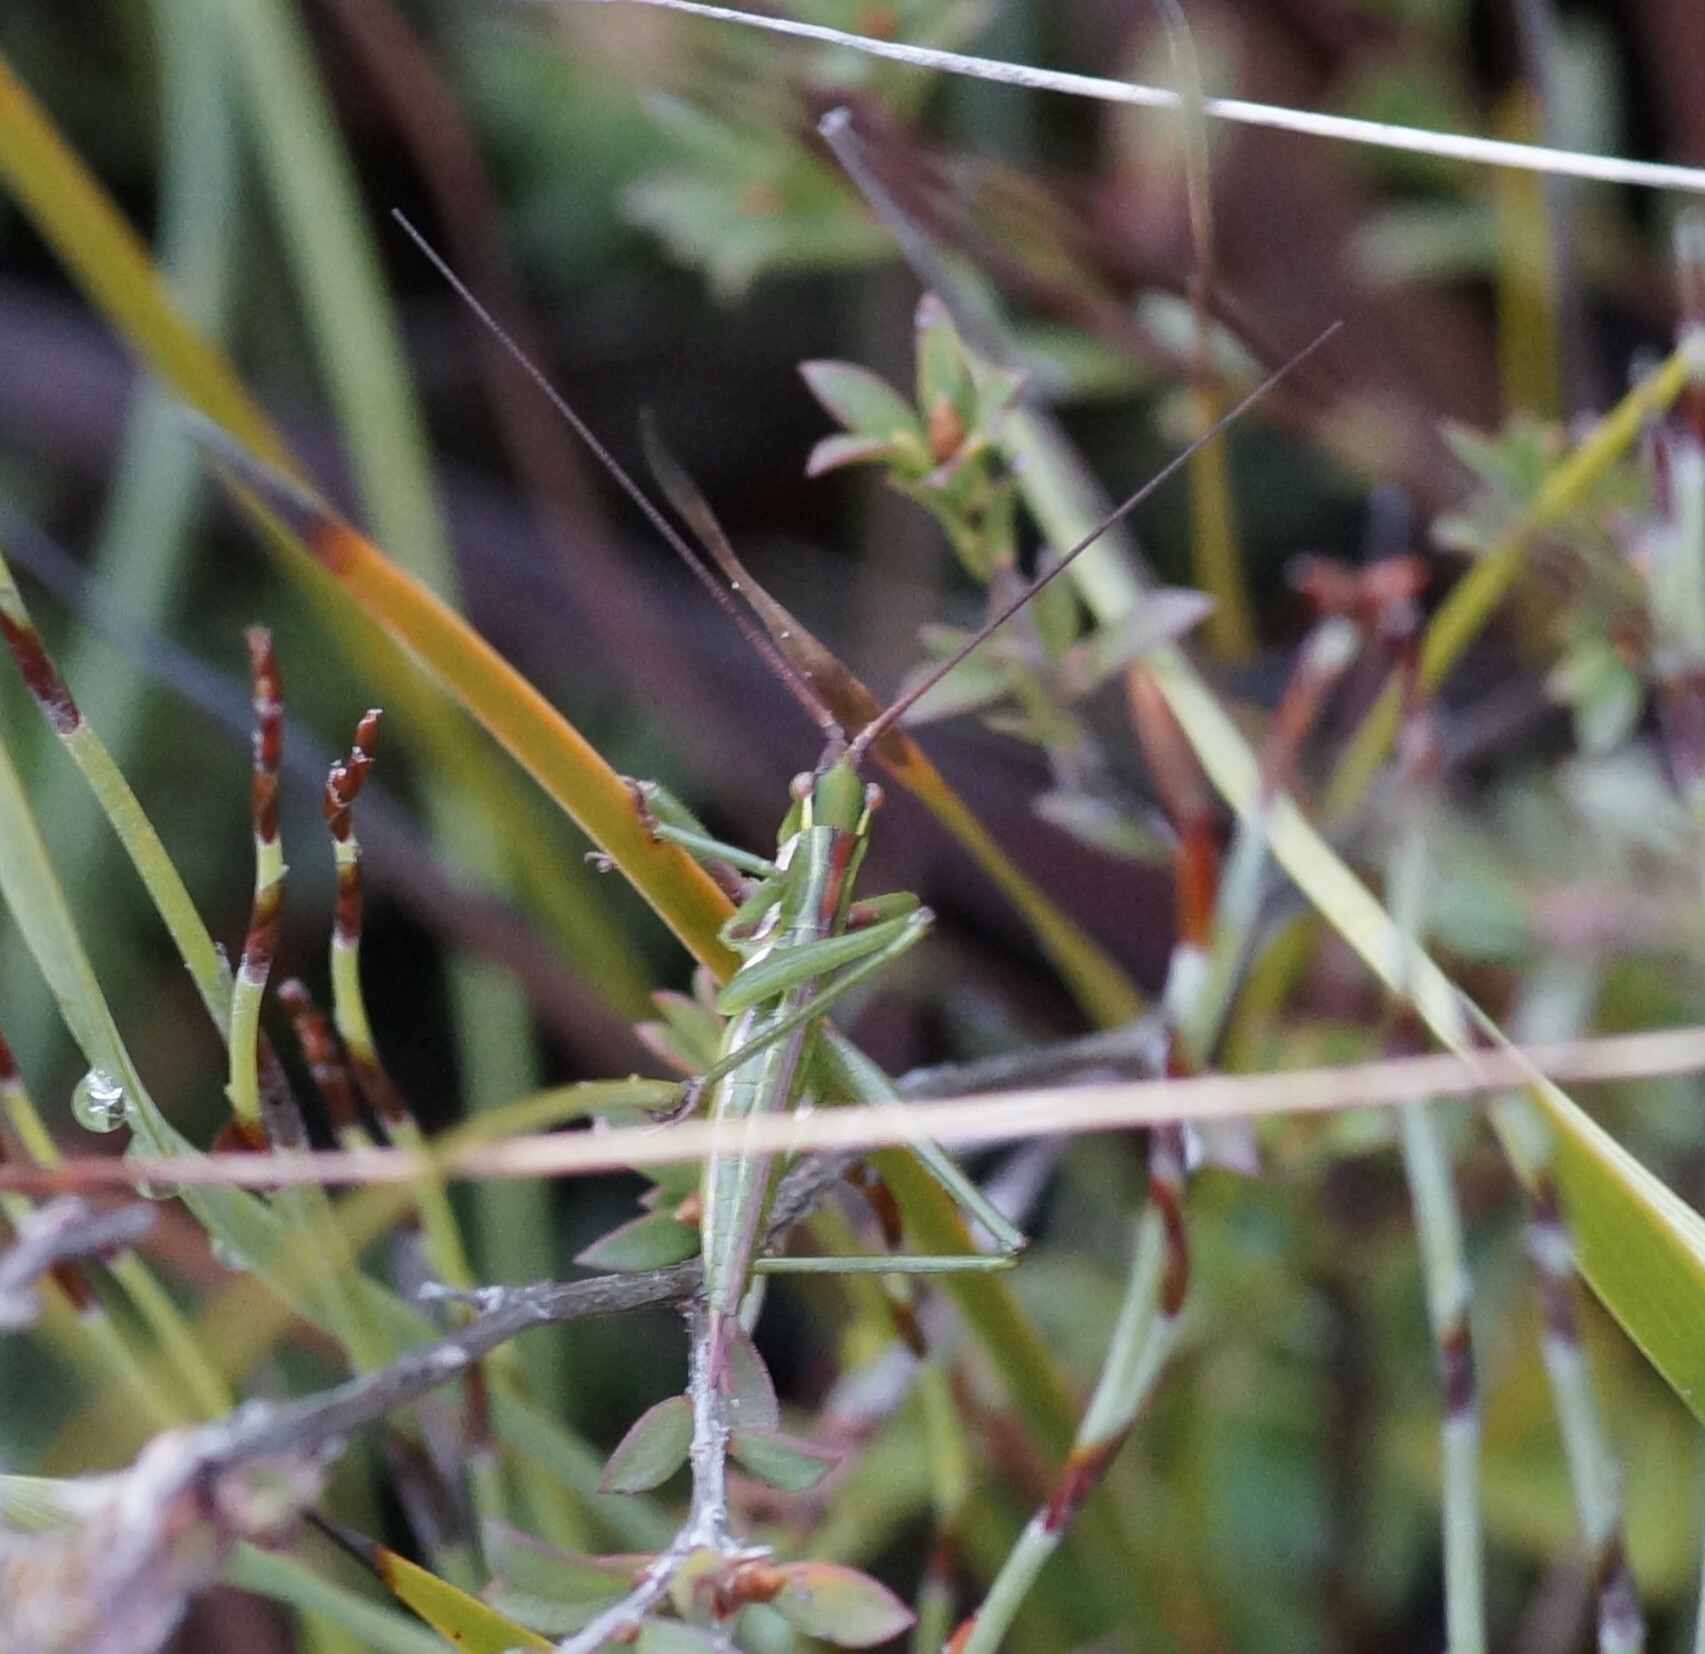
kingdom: Animalia
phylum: Arthropoda
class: Insecta
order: Orthoptera
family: Tettigoniidae
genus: Hemisaga
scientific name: Hemisaga lanceolata
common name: Victorian sluggish katydid
